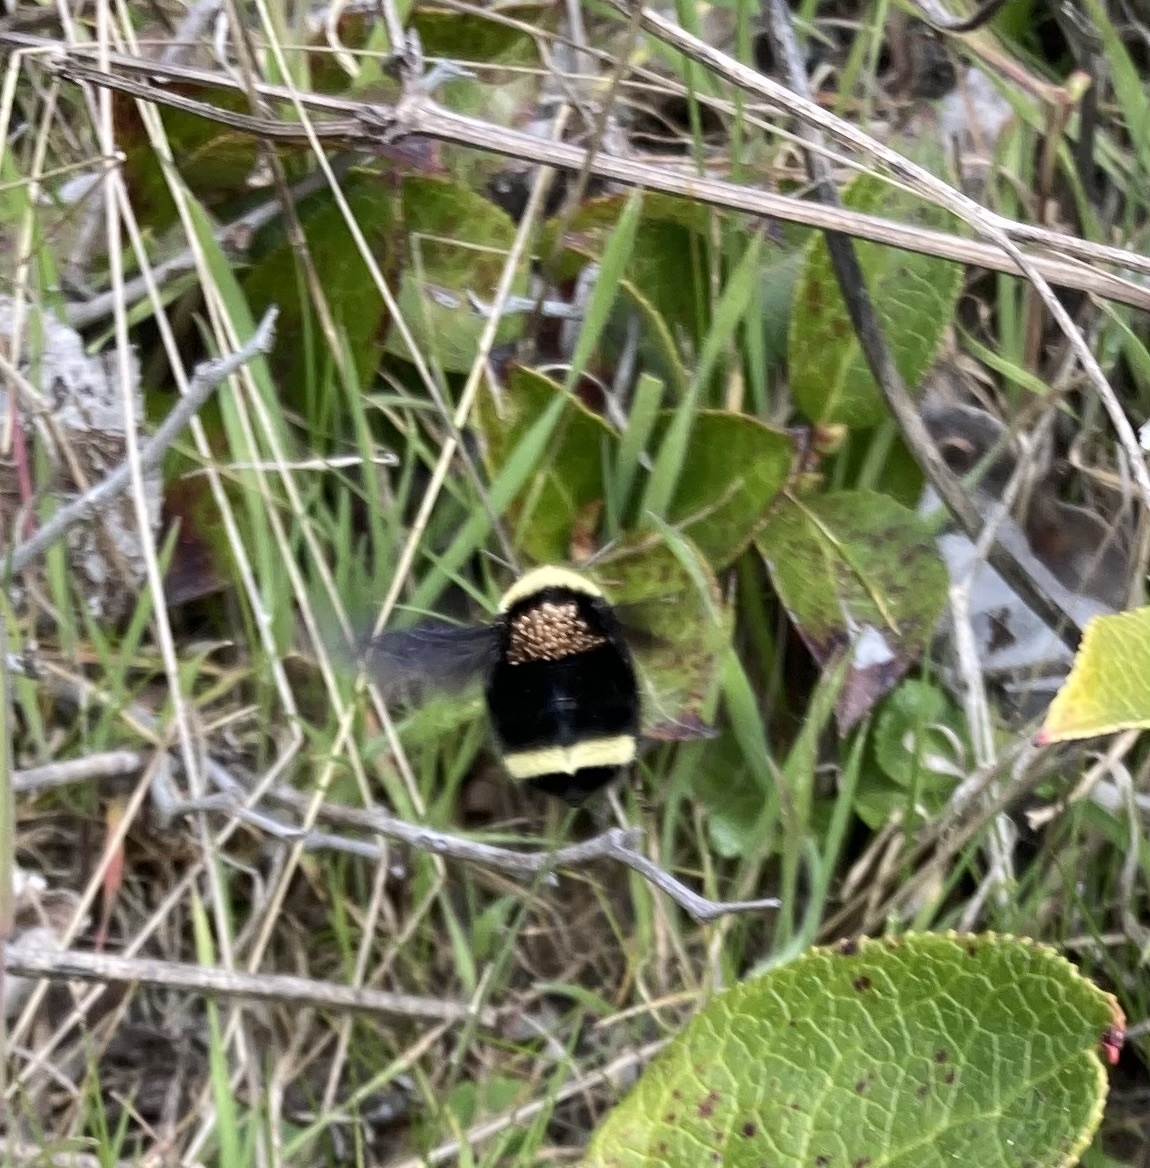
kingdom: Animalia
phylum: Arthropoda
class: Insecta
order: Hymenoptera
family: Apidae
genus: Bombus
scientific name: Bombus vosnesenskii
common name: Vosnesensky bumble bee
